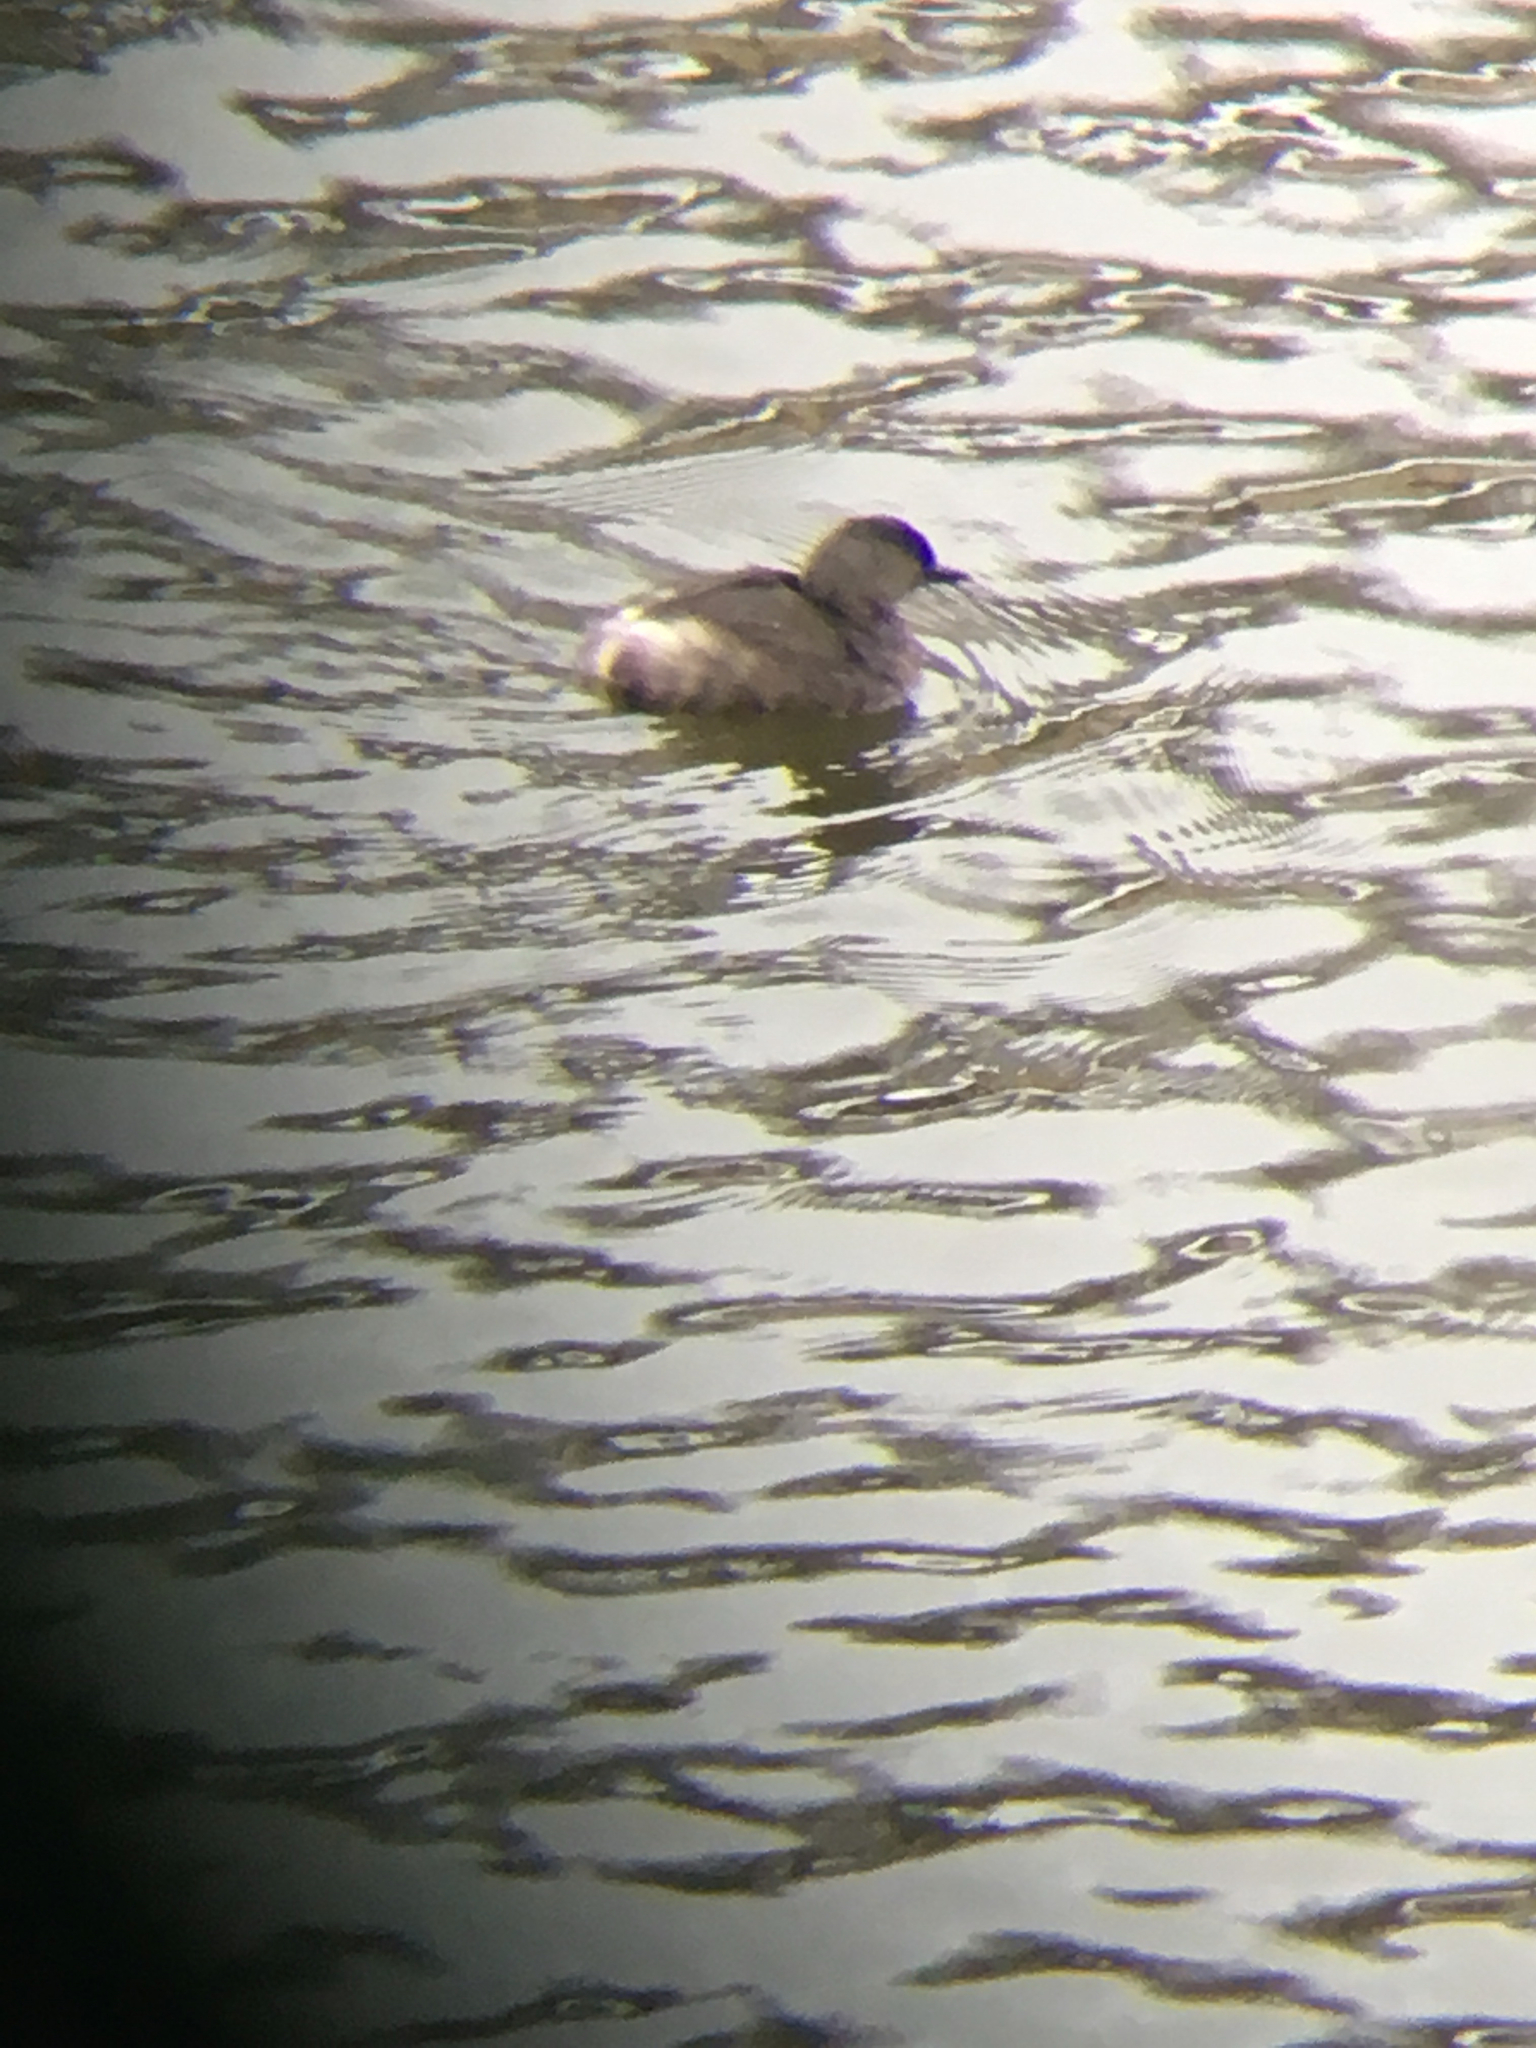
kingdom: Animalia
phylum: Chordata
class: Aves
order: Podicipediformes
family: Podicipedidae
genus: Tachybaptus
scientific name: Tachybaptus dominicus
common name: Least grebe
